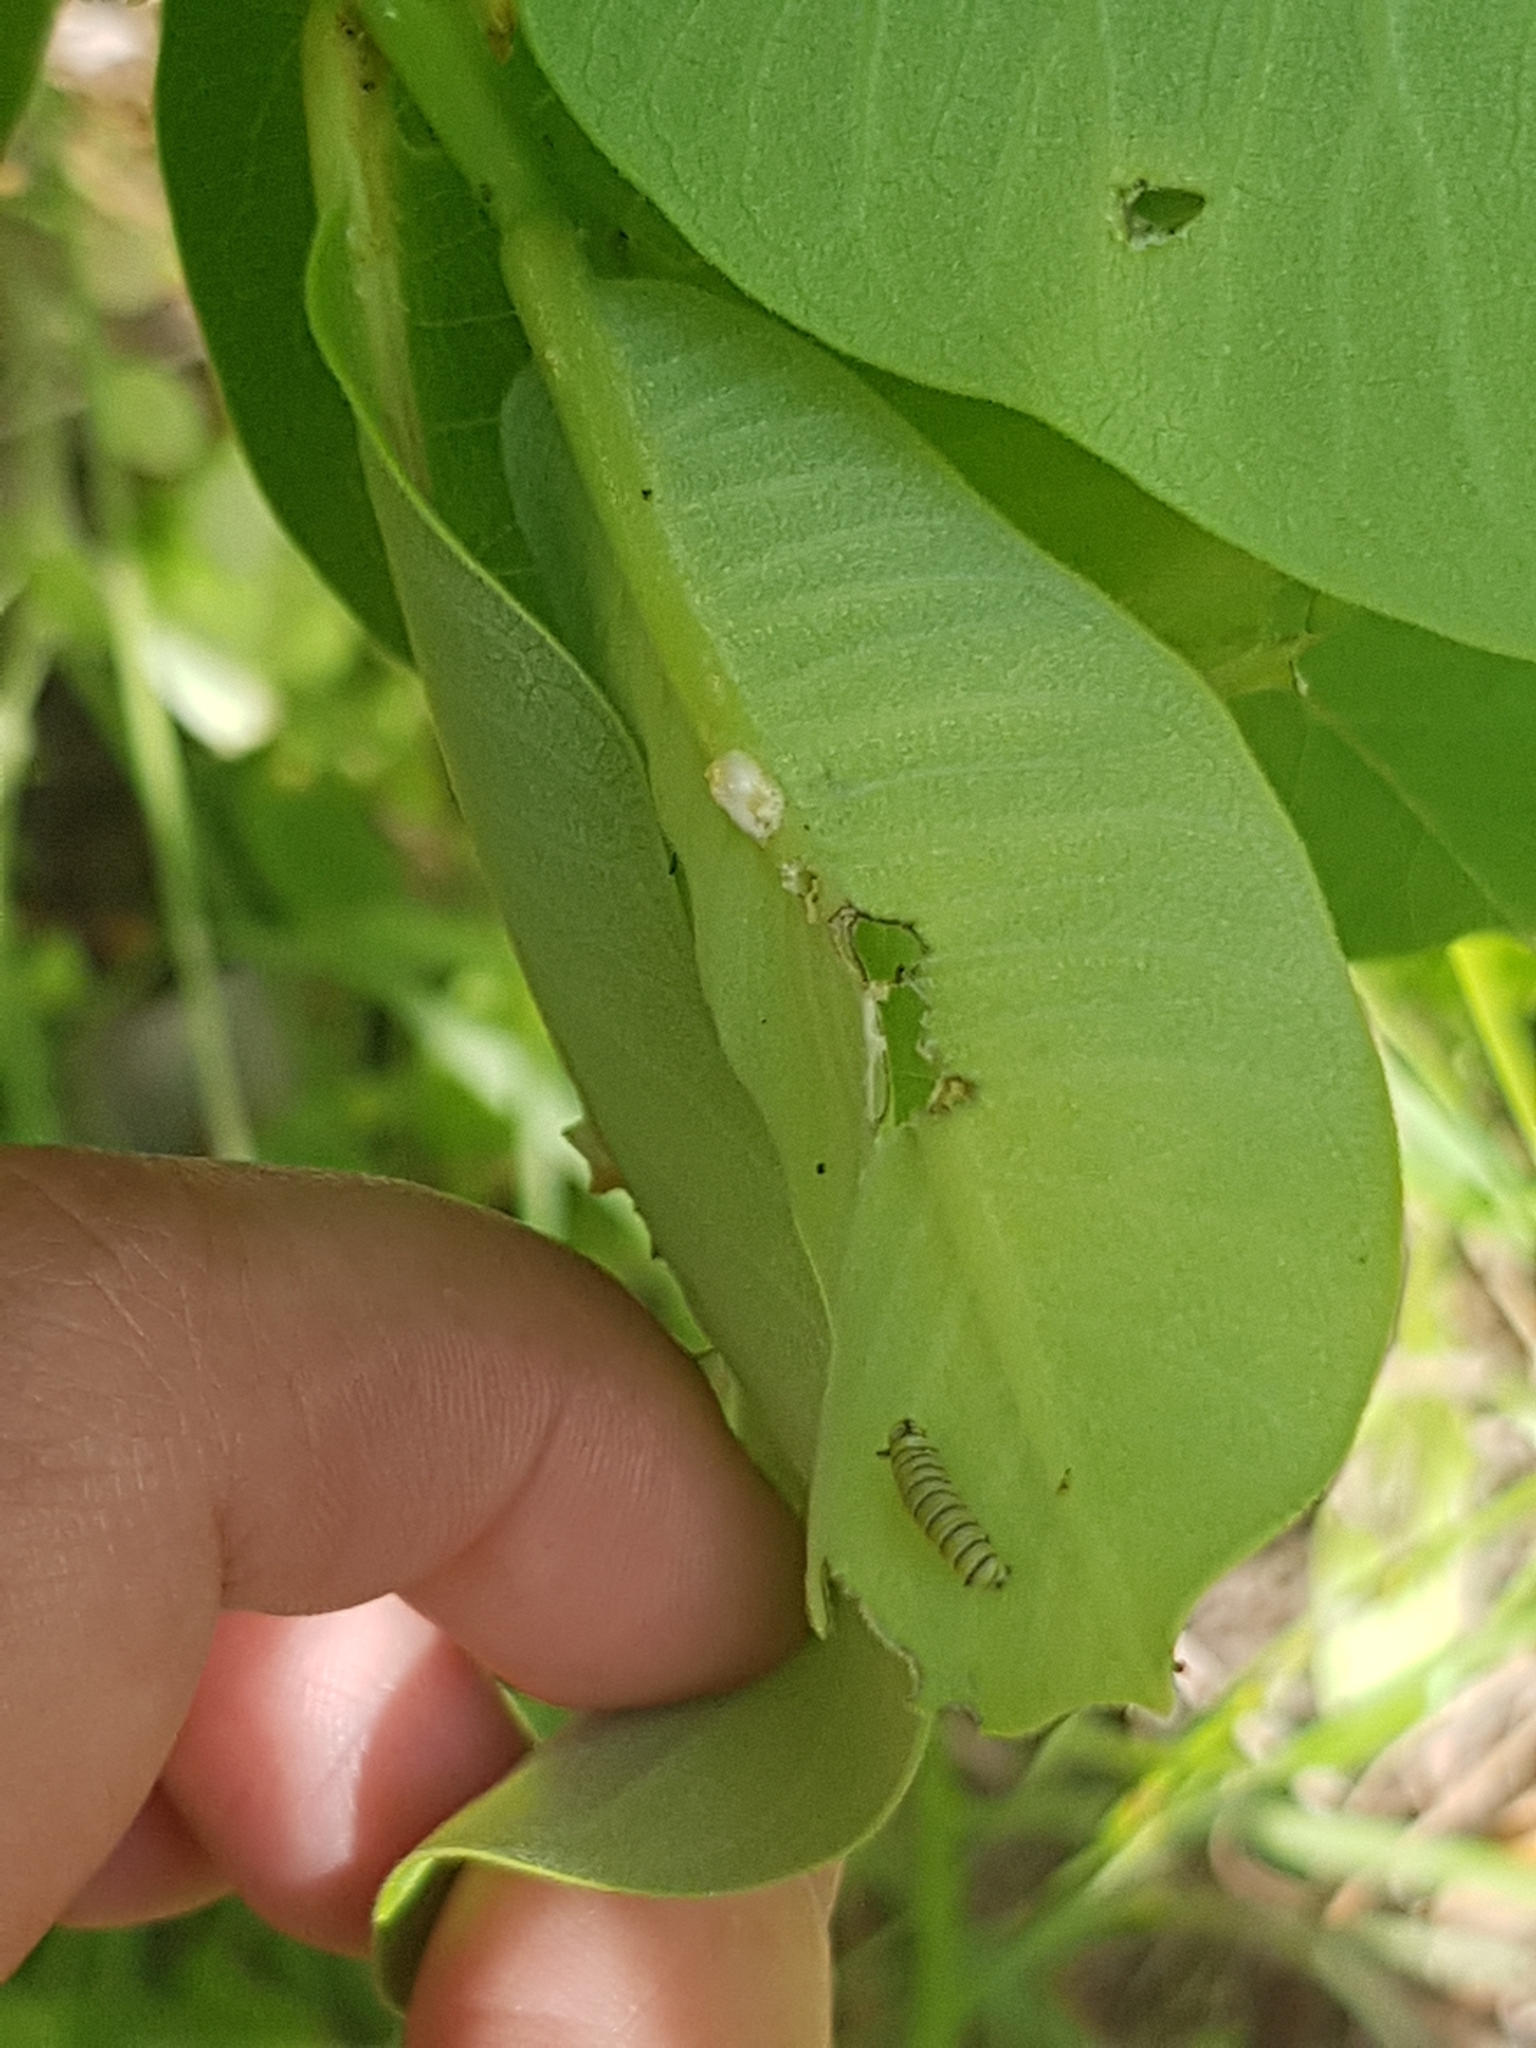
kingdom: Animalia
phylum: Arthropoda
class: Insecta
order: Lepidoptera
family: Nymphalidae
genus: Danaus
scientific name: Danaus plexippus
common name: Monarch
